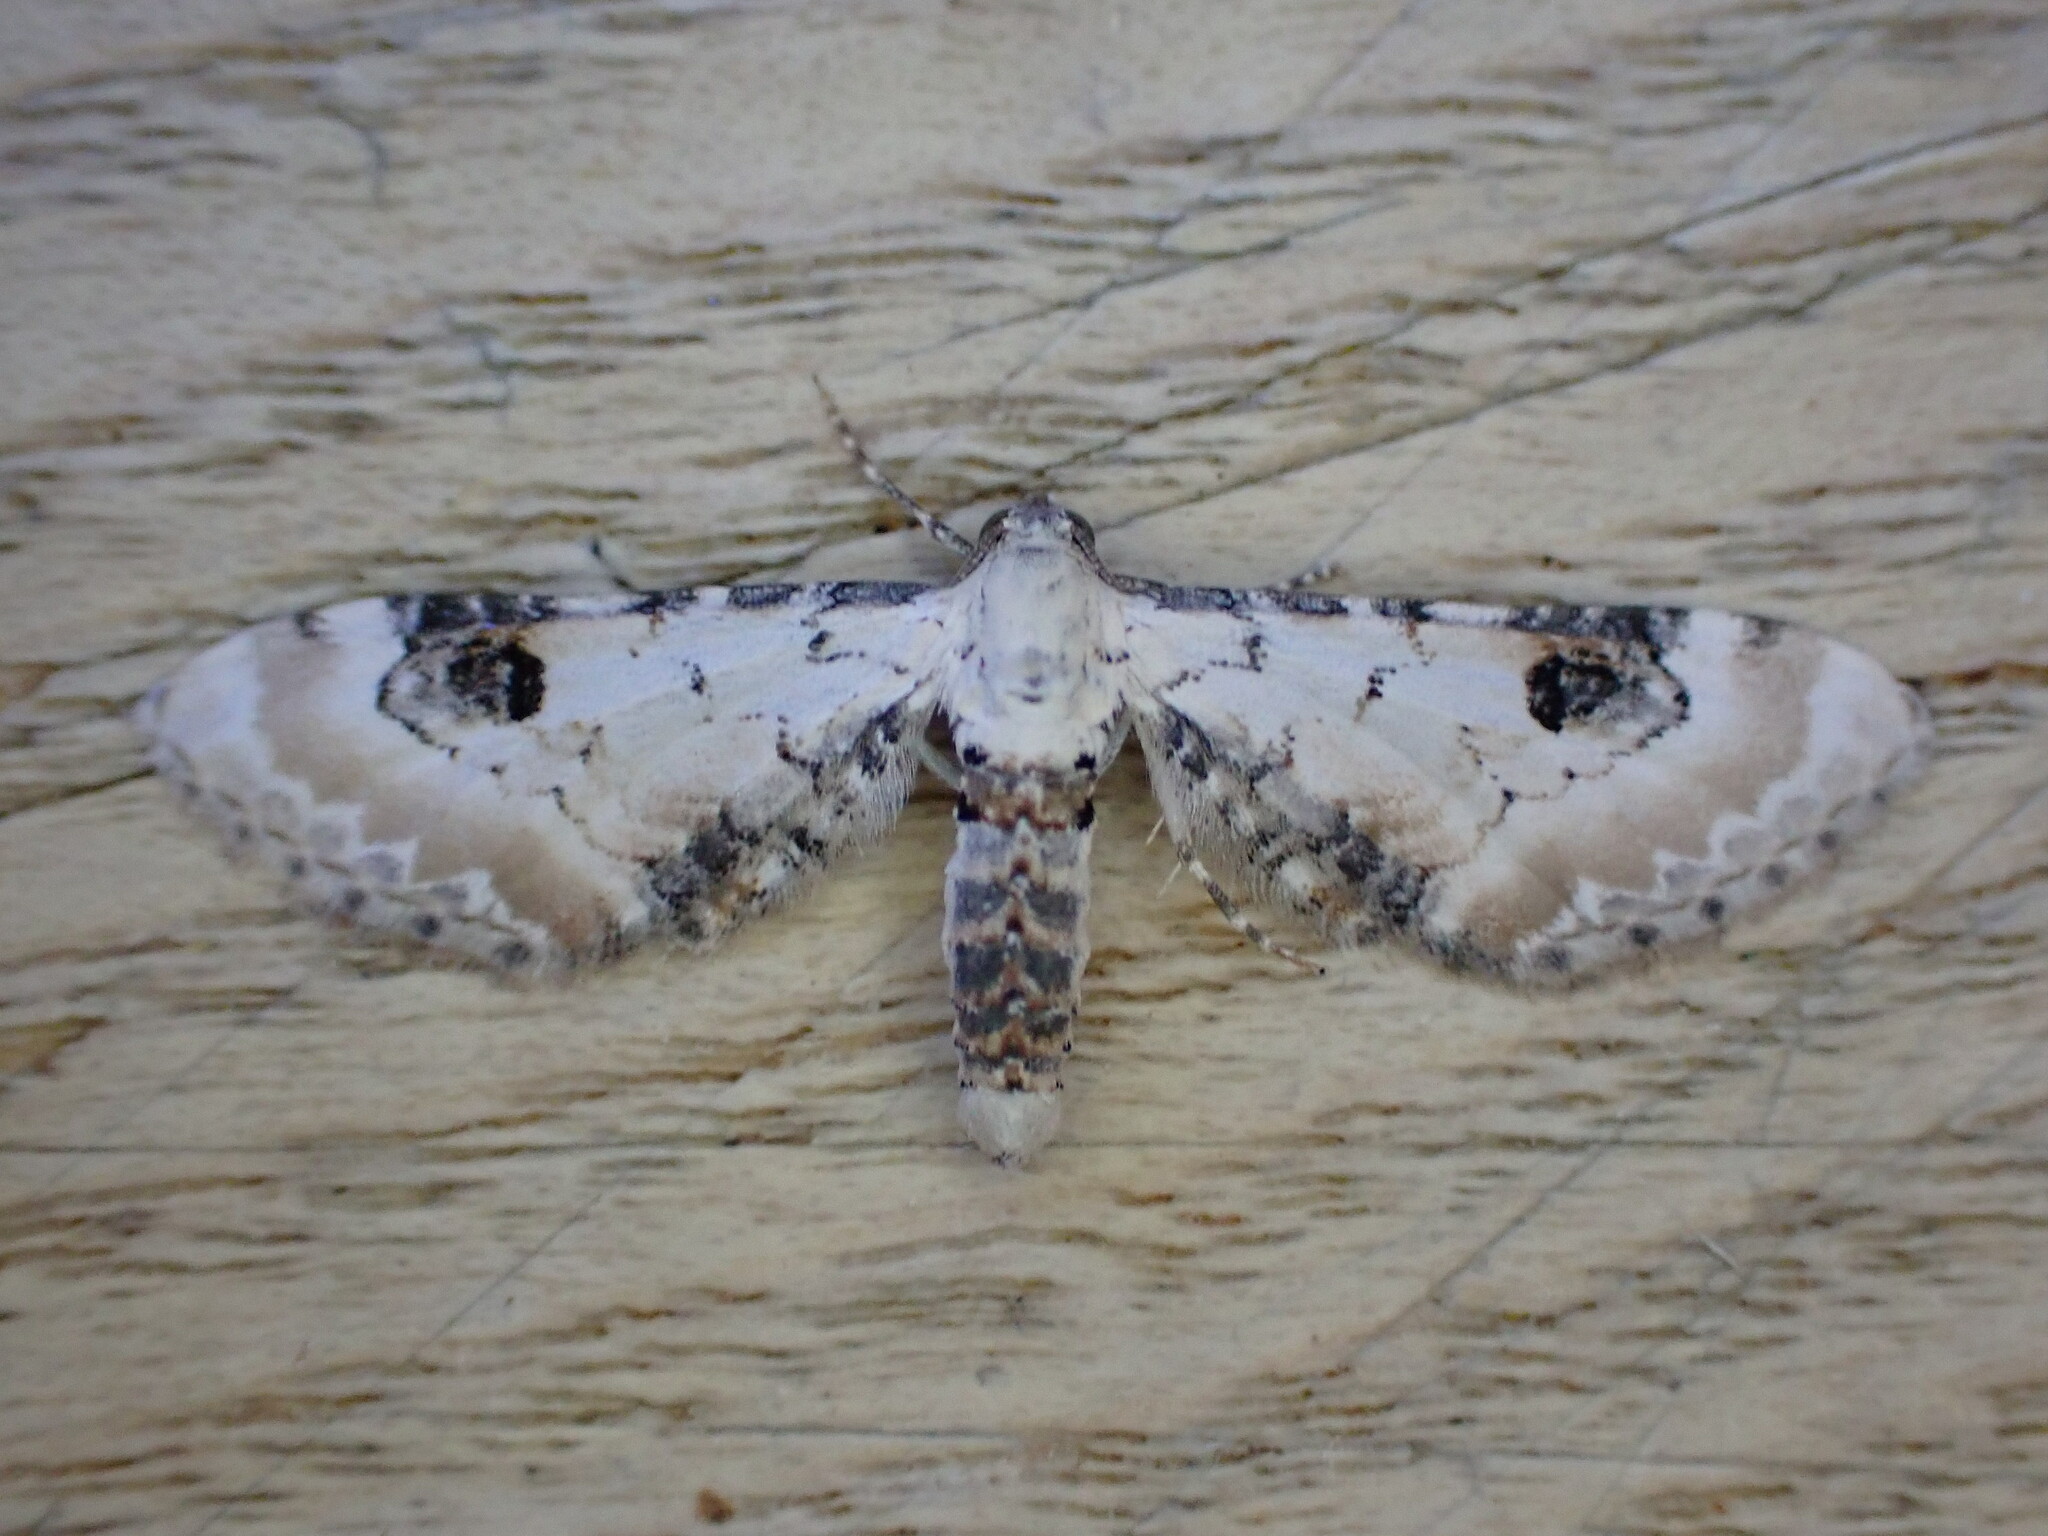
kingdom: Animalia
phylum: Arthropoda
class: Insecta
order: Lepidoptera
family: Geometridae
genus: Eupithecia
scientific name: Eupithecia centaureata
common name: Lime-speck pug
